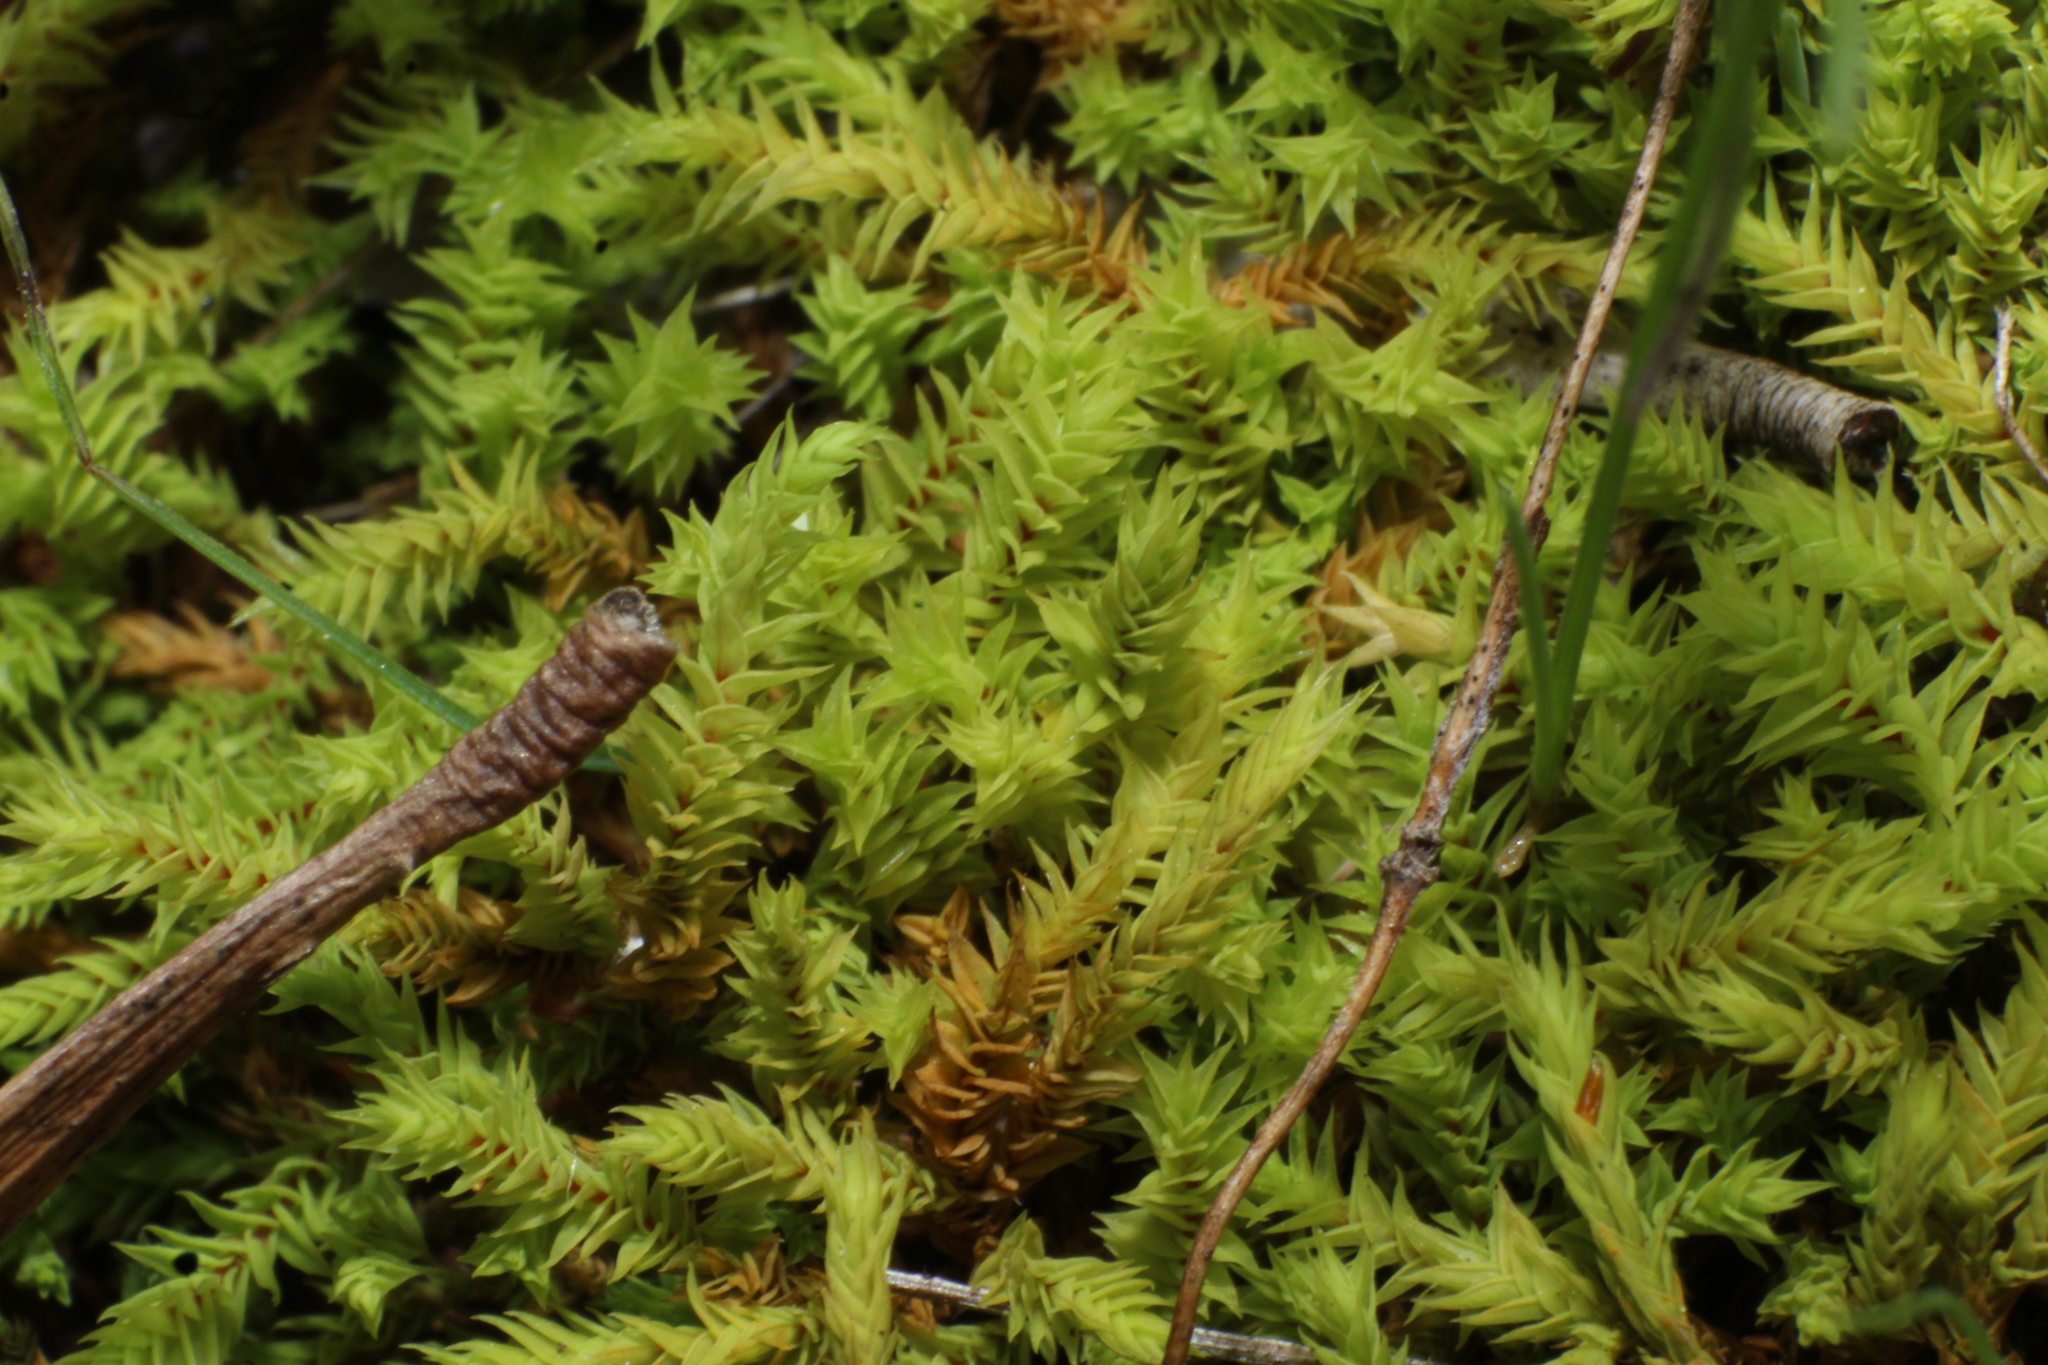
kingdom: Plantae
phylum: Bryophyta
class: Bryopsida
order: Pottiales
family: Pottiaceae
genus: Triquetrella
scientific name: Triquetrella papillata
